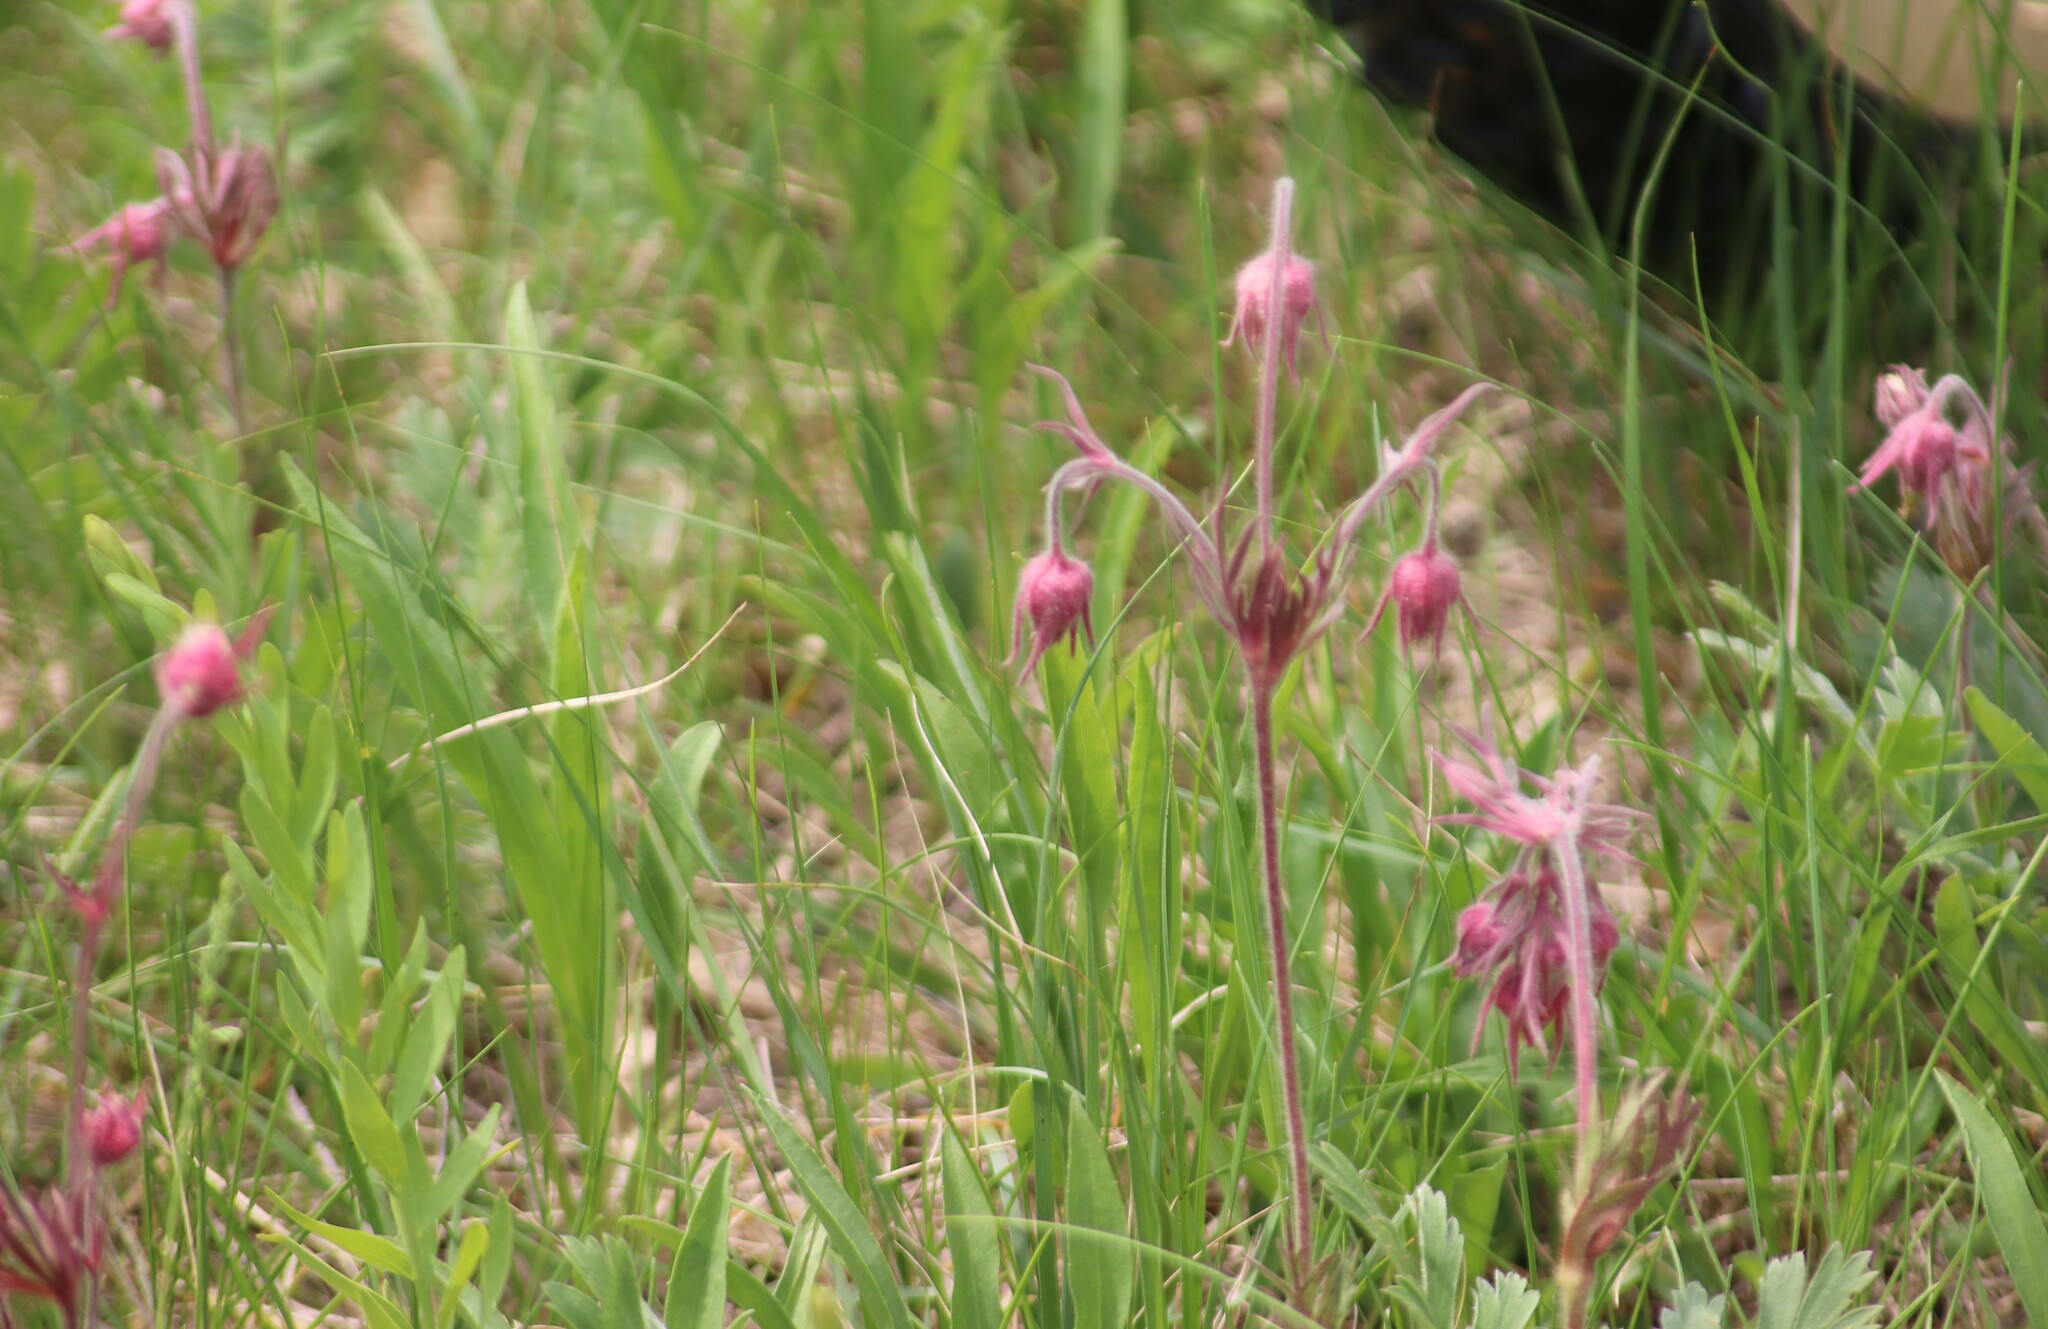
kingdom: Plantae
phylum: Tracheophyta
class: Magnoliopsida
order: Rosales
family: Rosaceae
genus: Geum
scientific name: Geum triflorum
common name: Old man's whiskers
